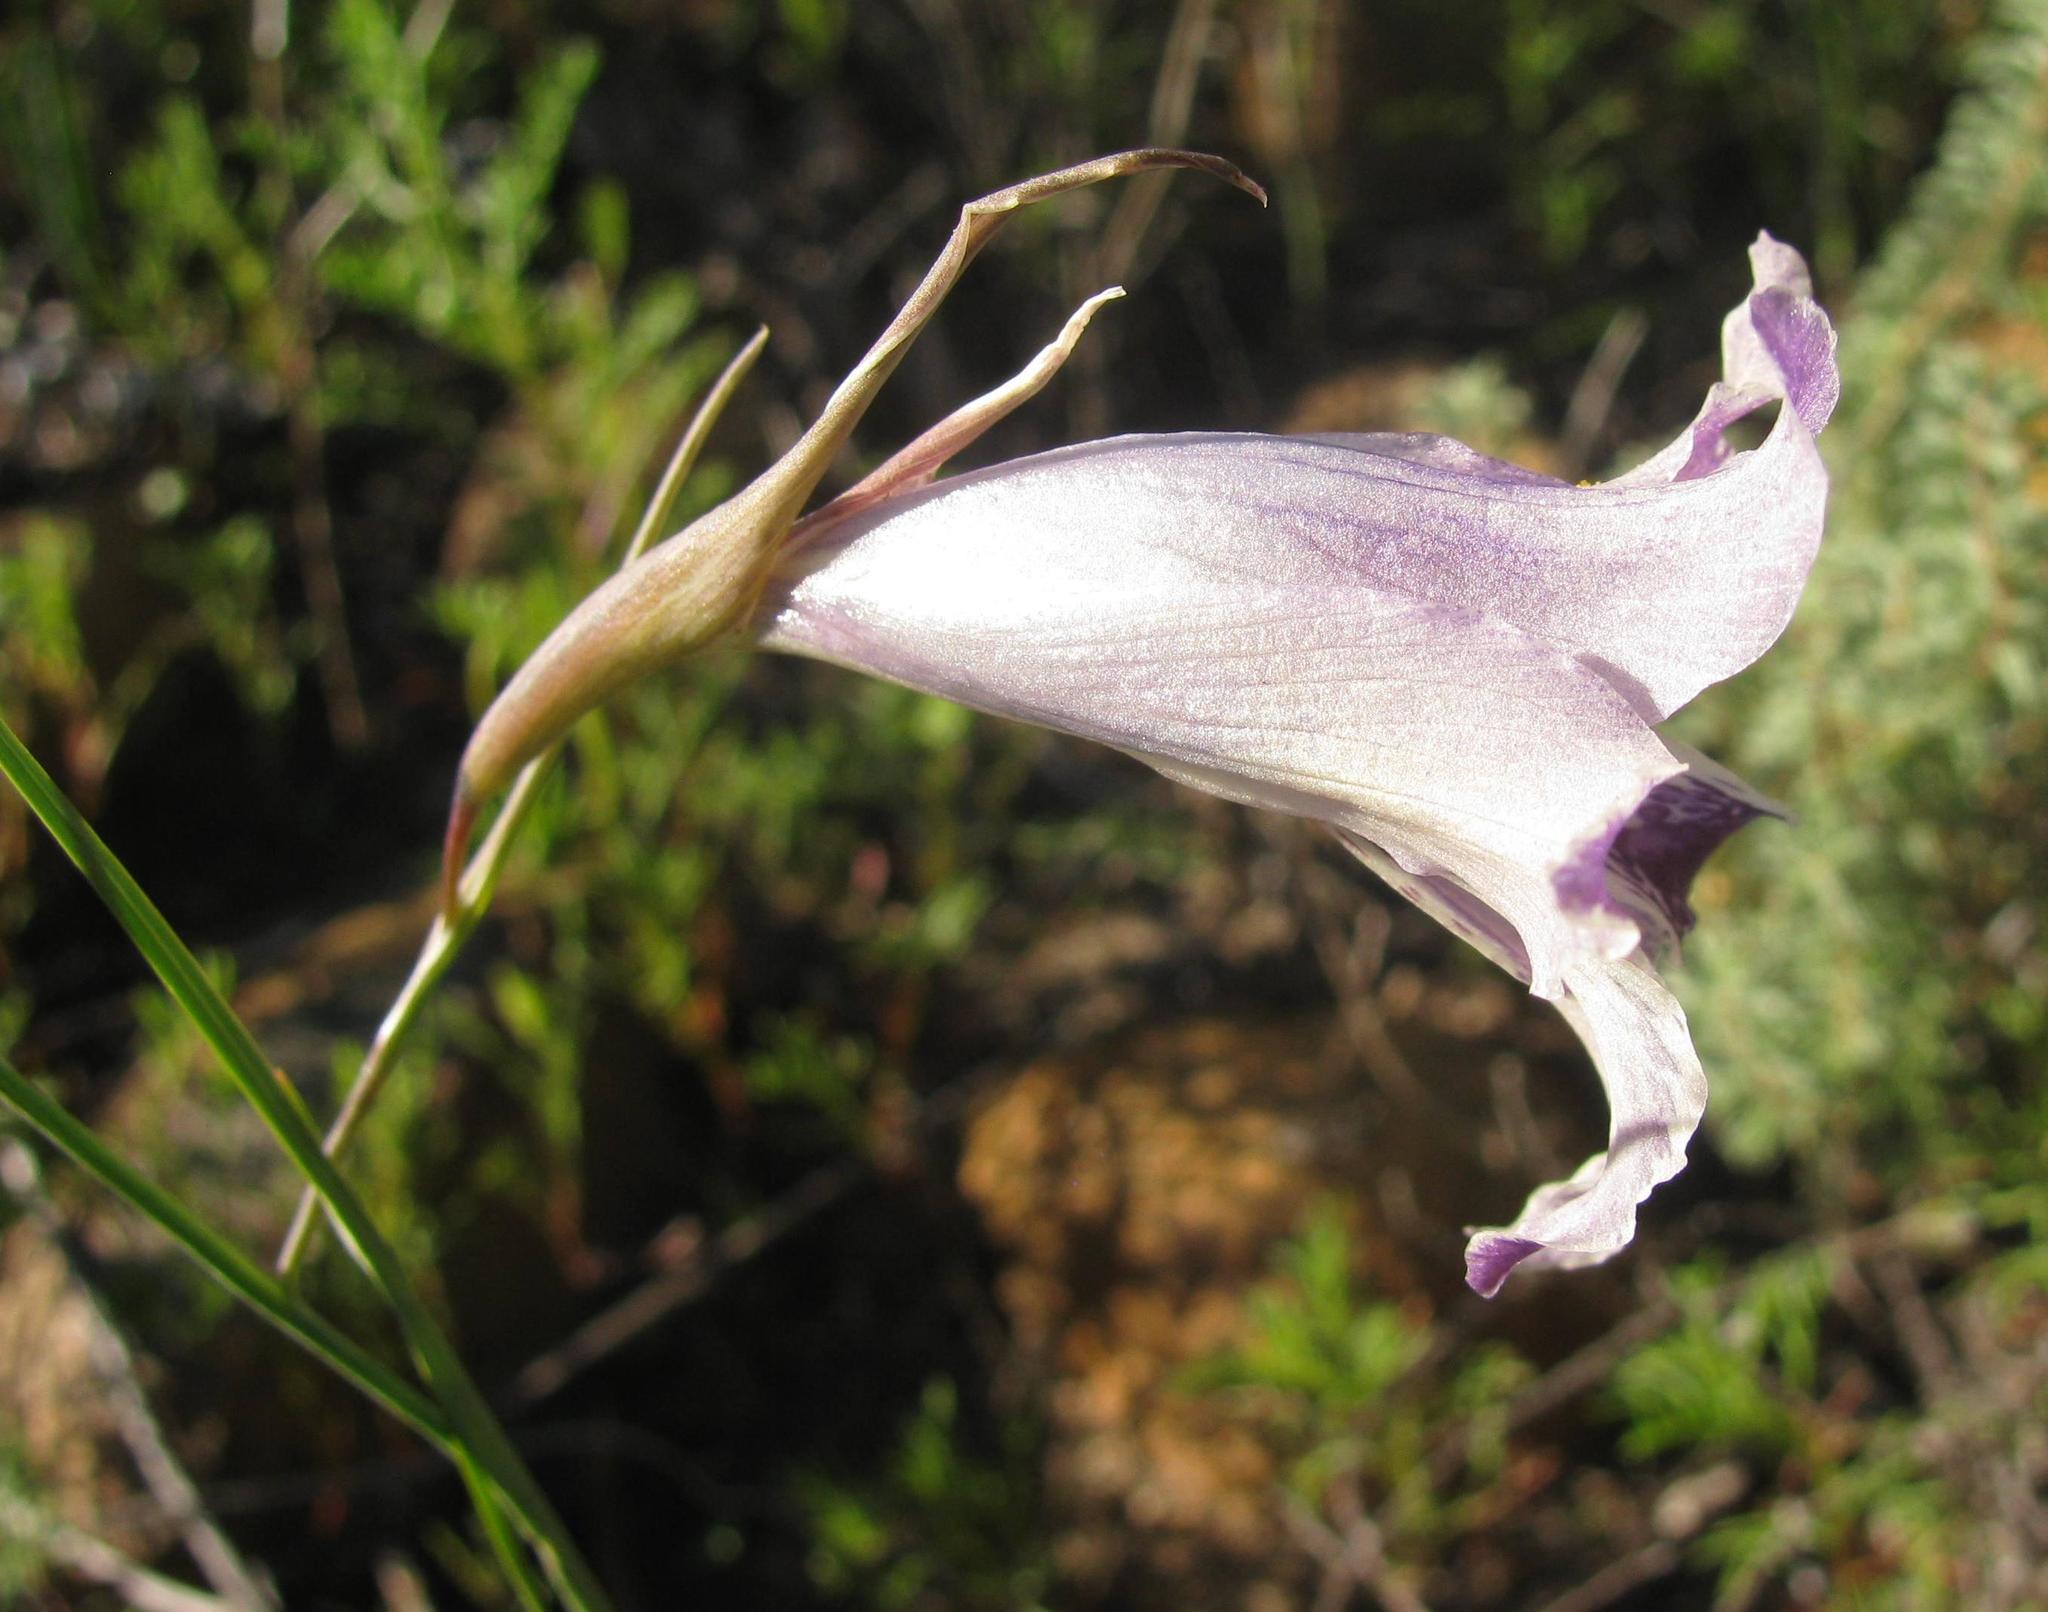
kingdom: Plantae
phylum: Tracheophyta
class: Liliopsida
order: Asparagales
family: Iridaceae
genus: Gladiolus
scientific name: Gladiolus inflexus
